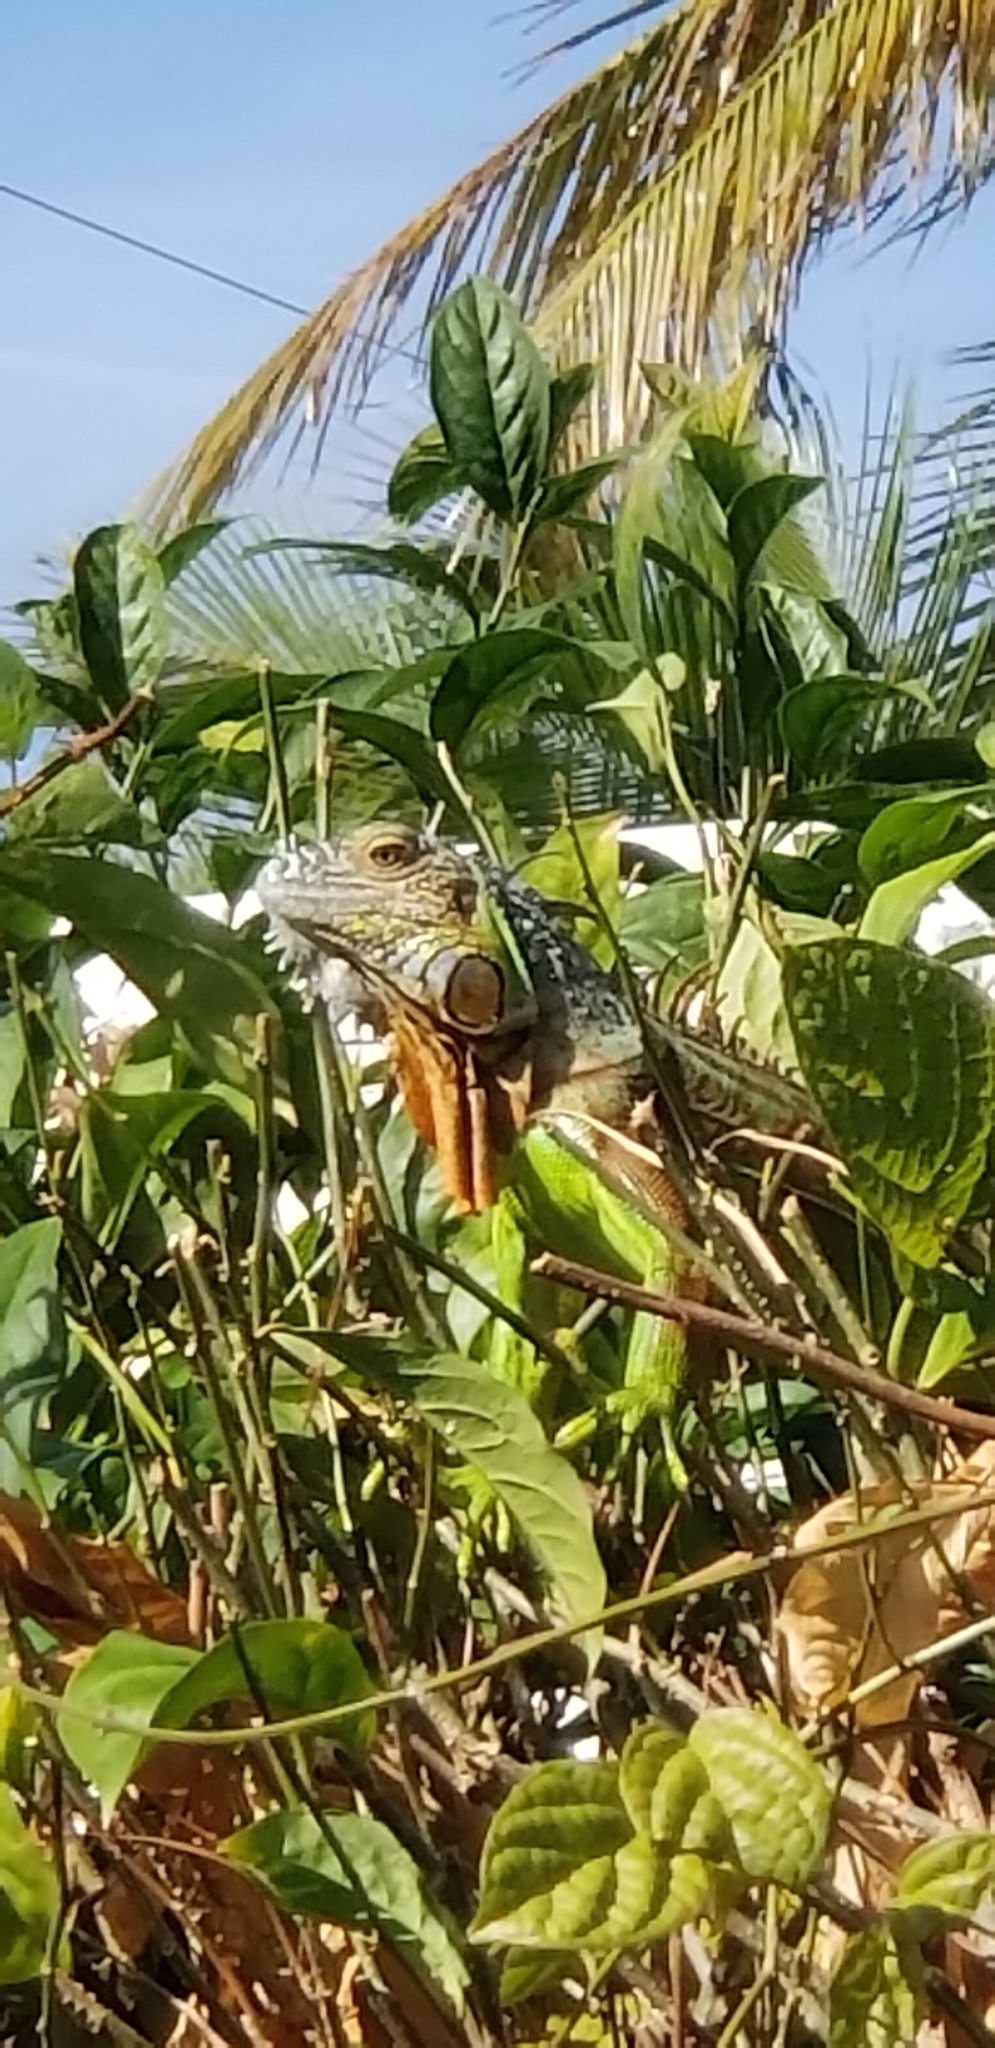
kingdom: Animalia
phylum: Chordata
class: Squamata
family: Iguanidae
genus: Iguana
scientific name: Iguana iguana
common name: Green iguana
